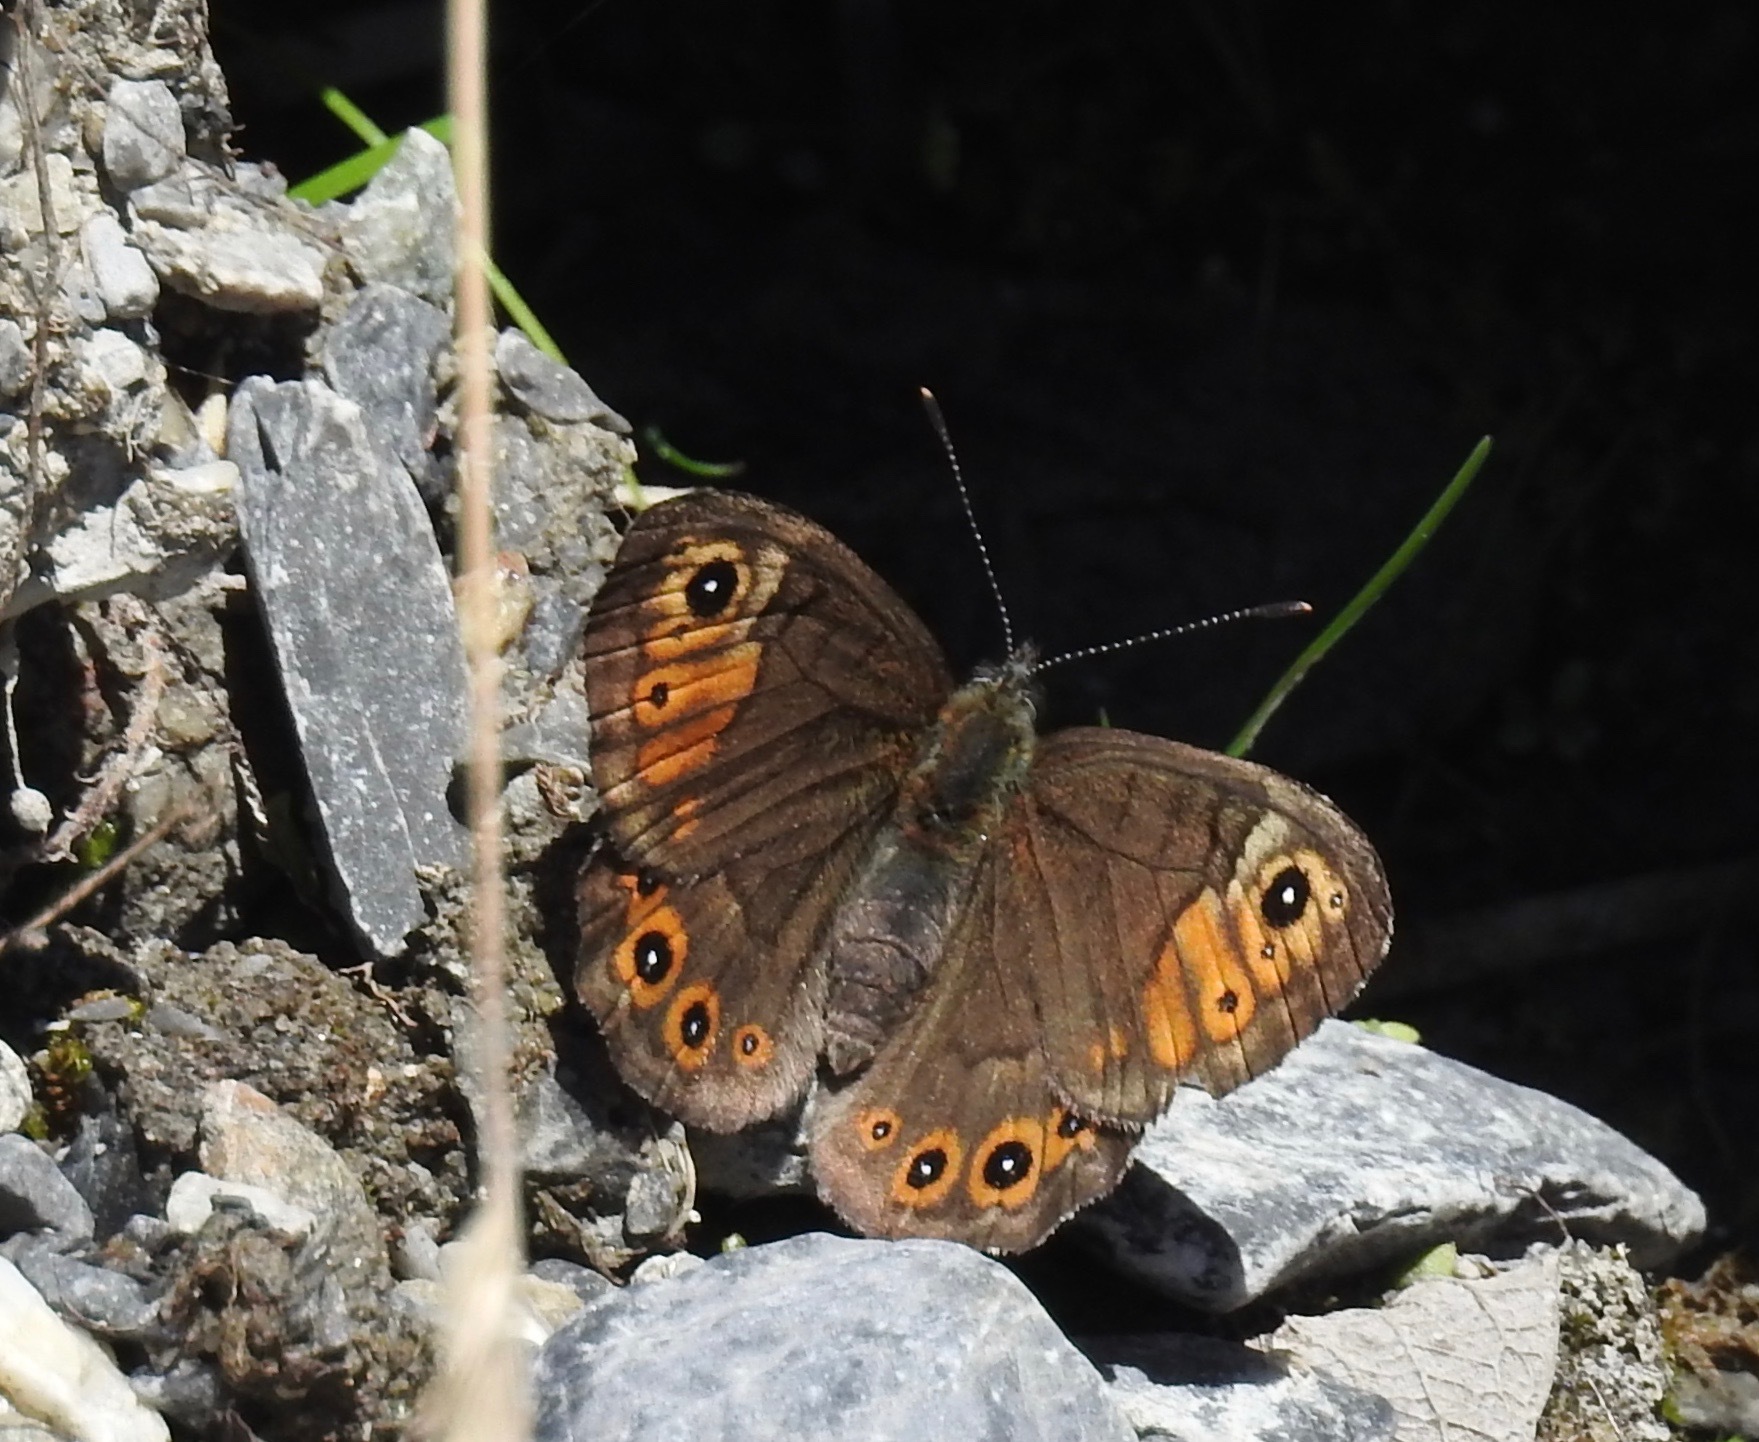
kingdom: Animalia
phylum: Arthropoda
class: Insecta
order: Lepidoptera
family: Nymphalidae
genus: Pararge
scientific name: Pararge petropolitana
